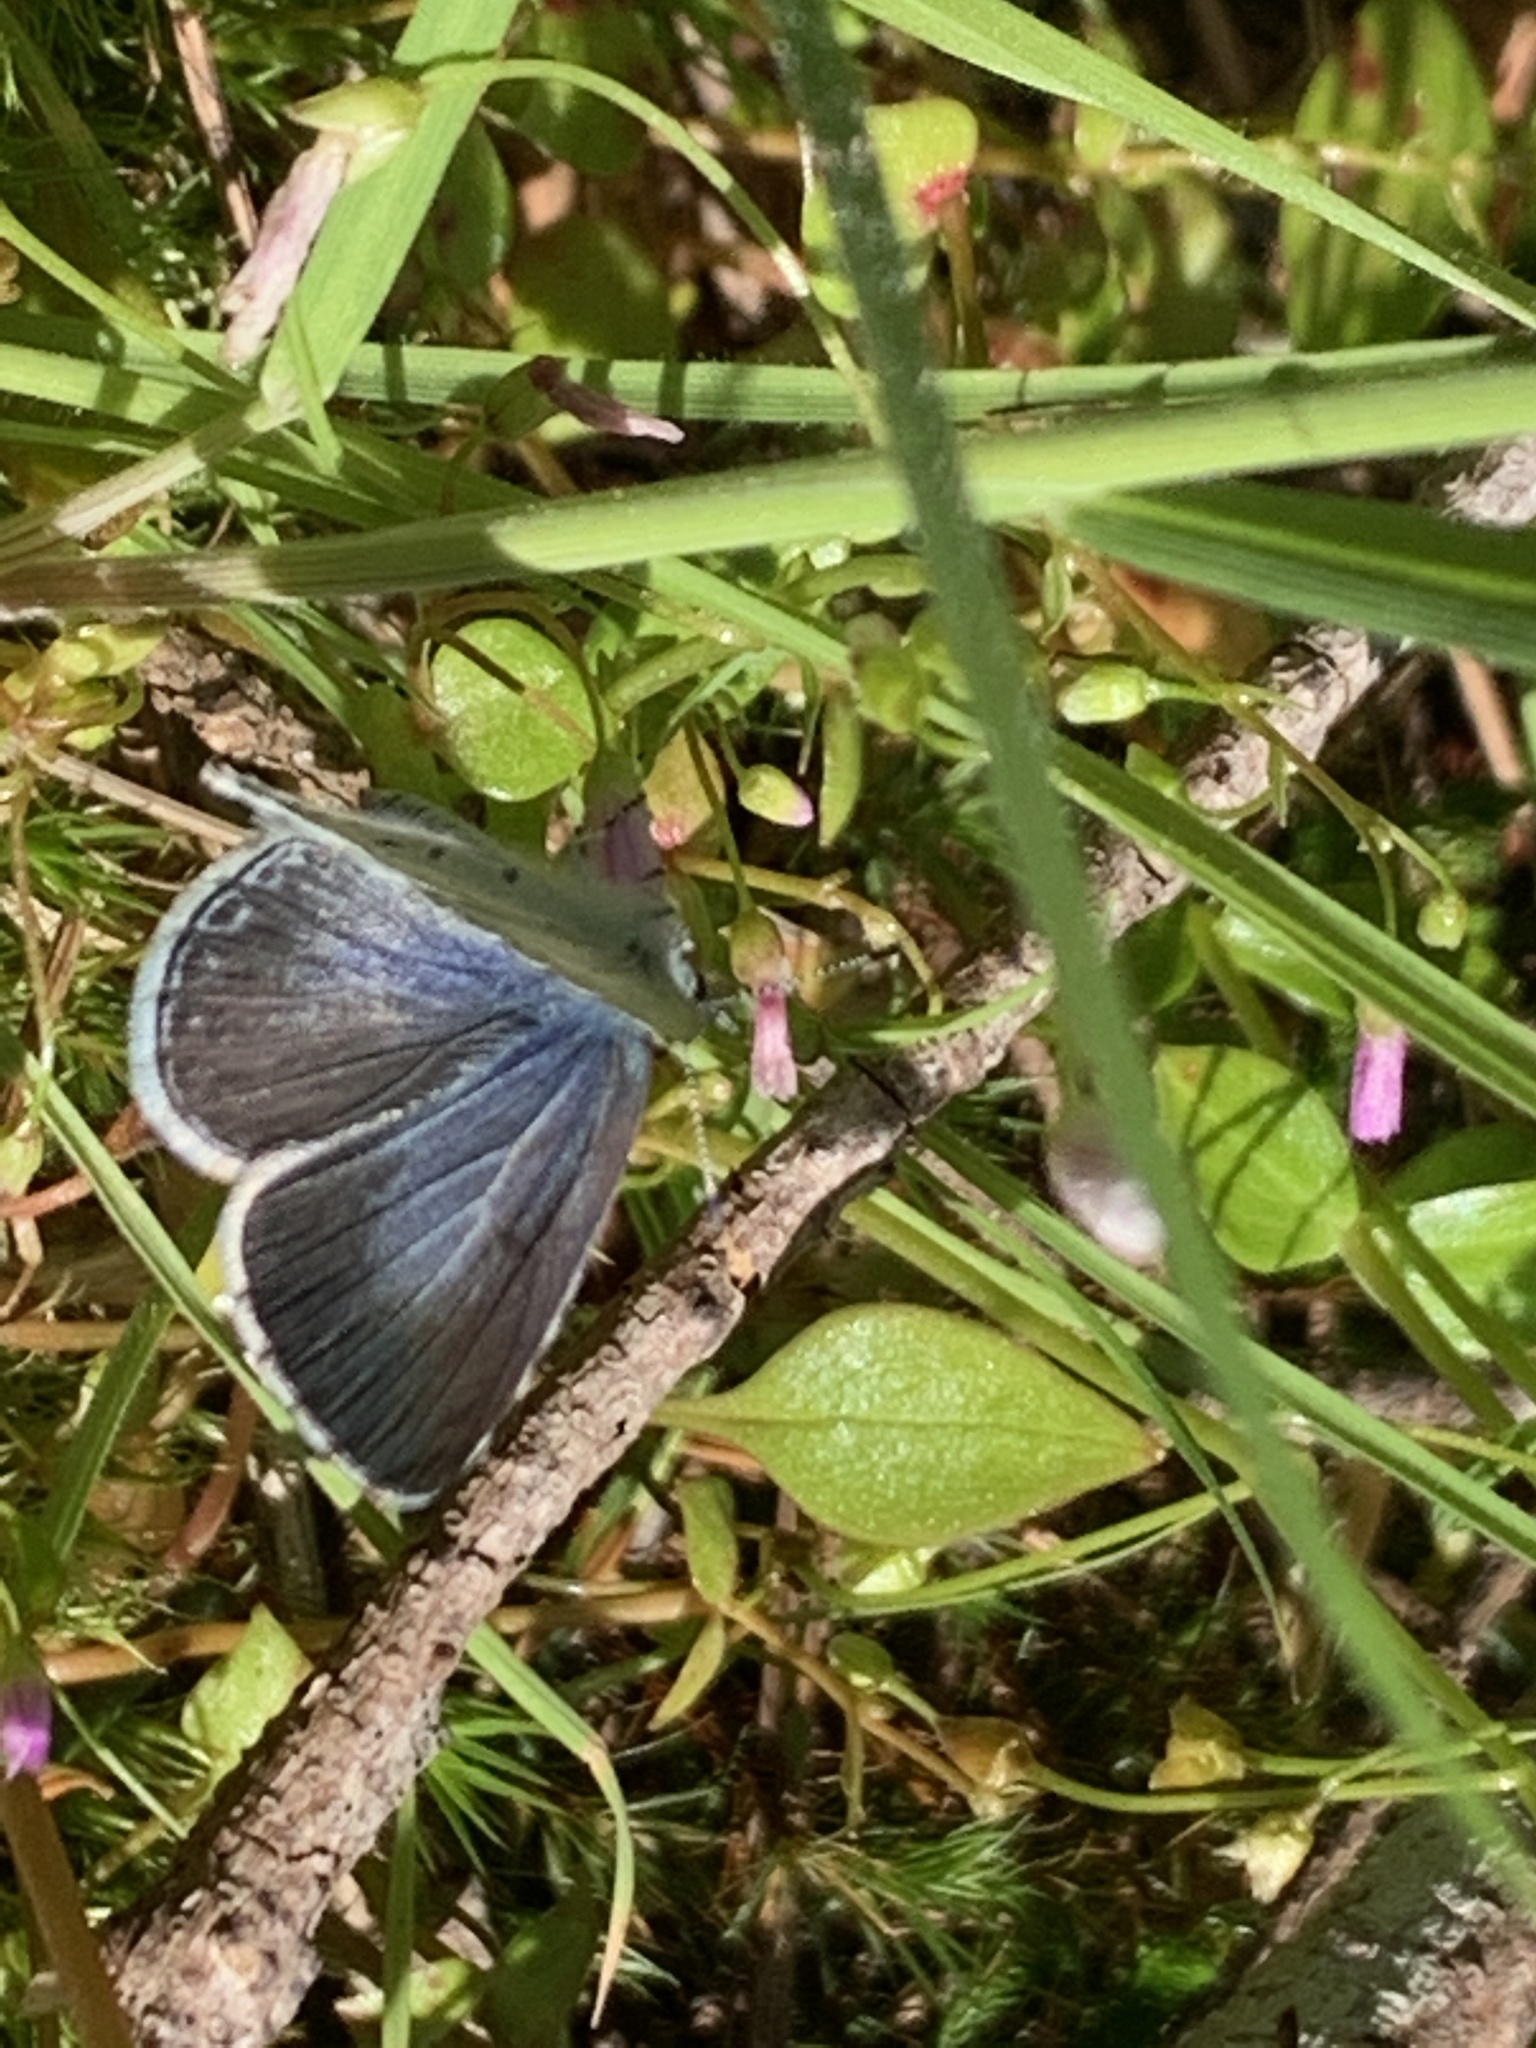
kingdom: Animalia
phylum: Arthropoda
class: Insecta
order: Lepidoptera
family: Lycaenidae
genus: Celastrina
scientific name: Celastrina ladon
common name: Spring azure
